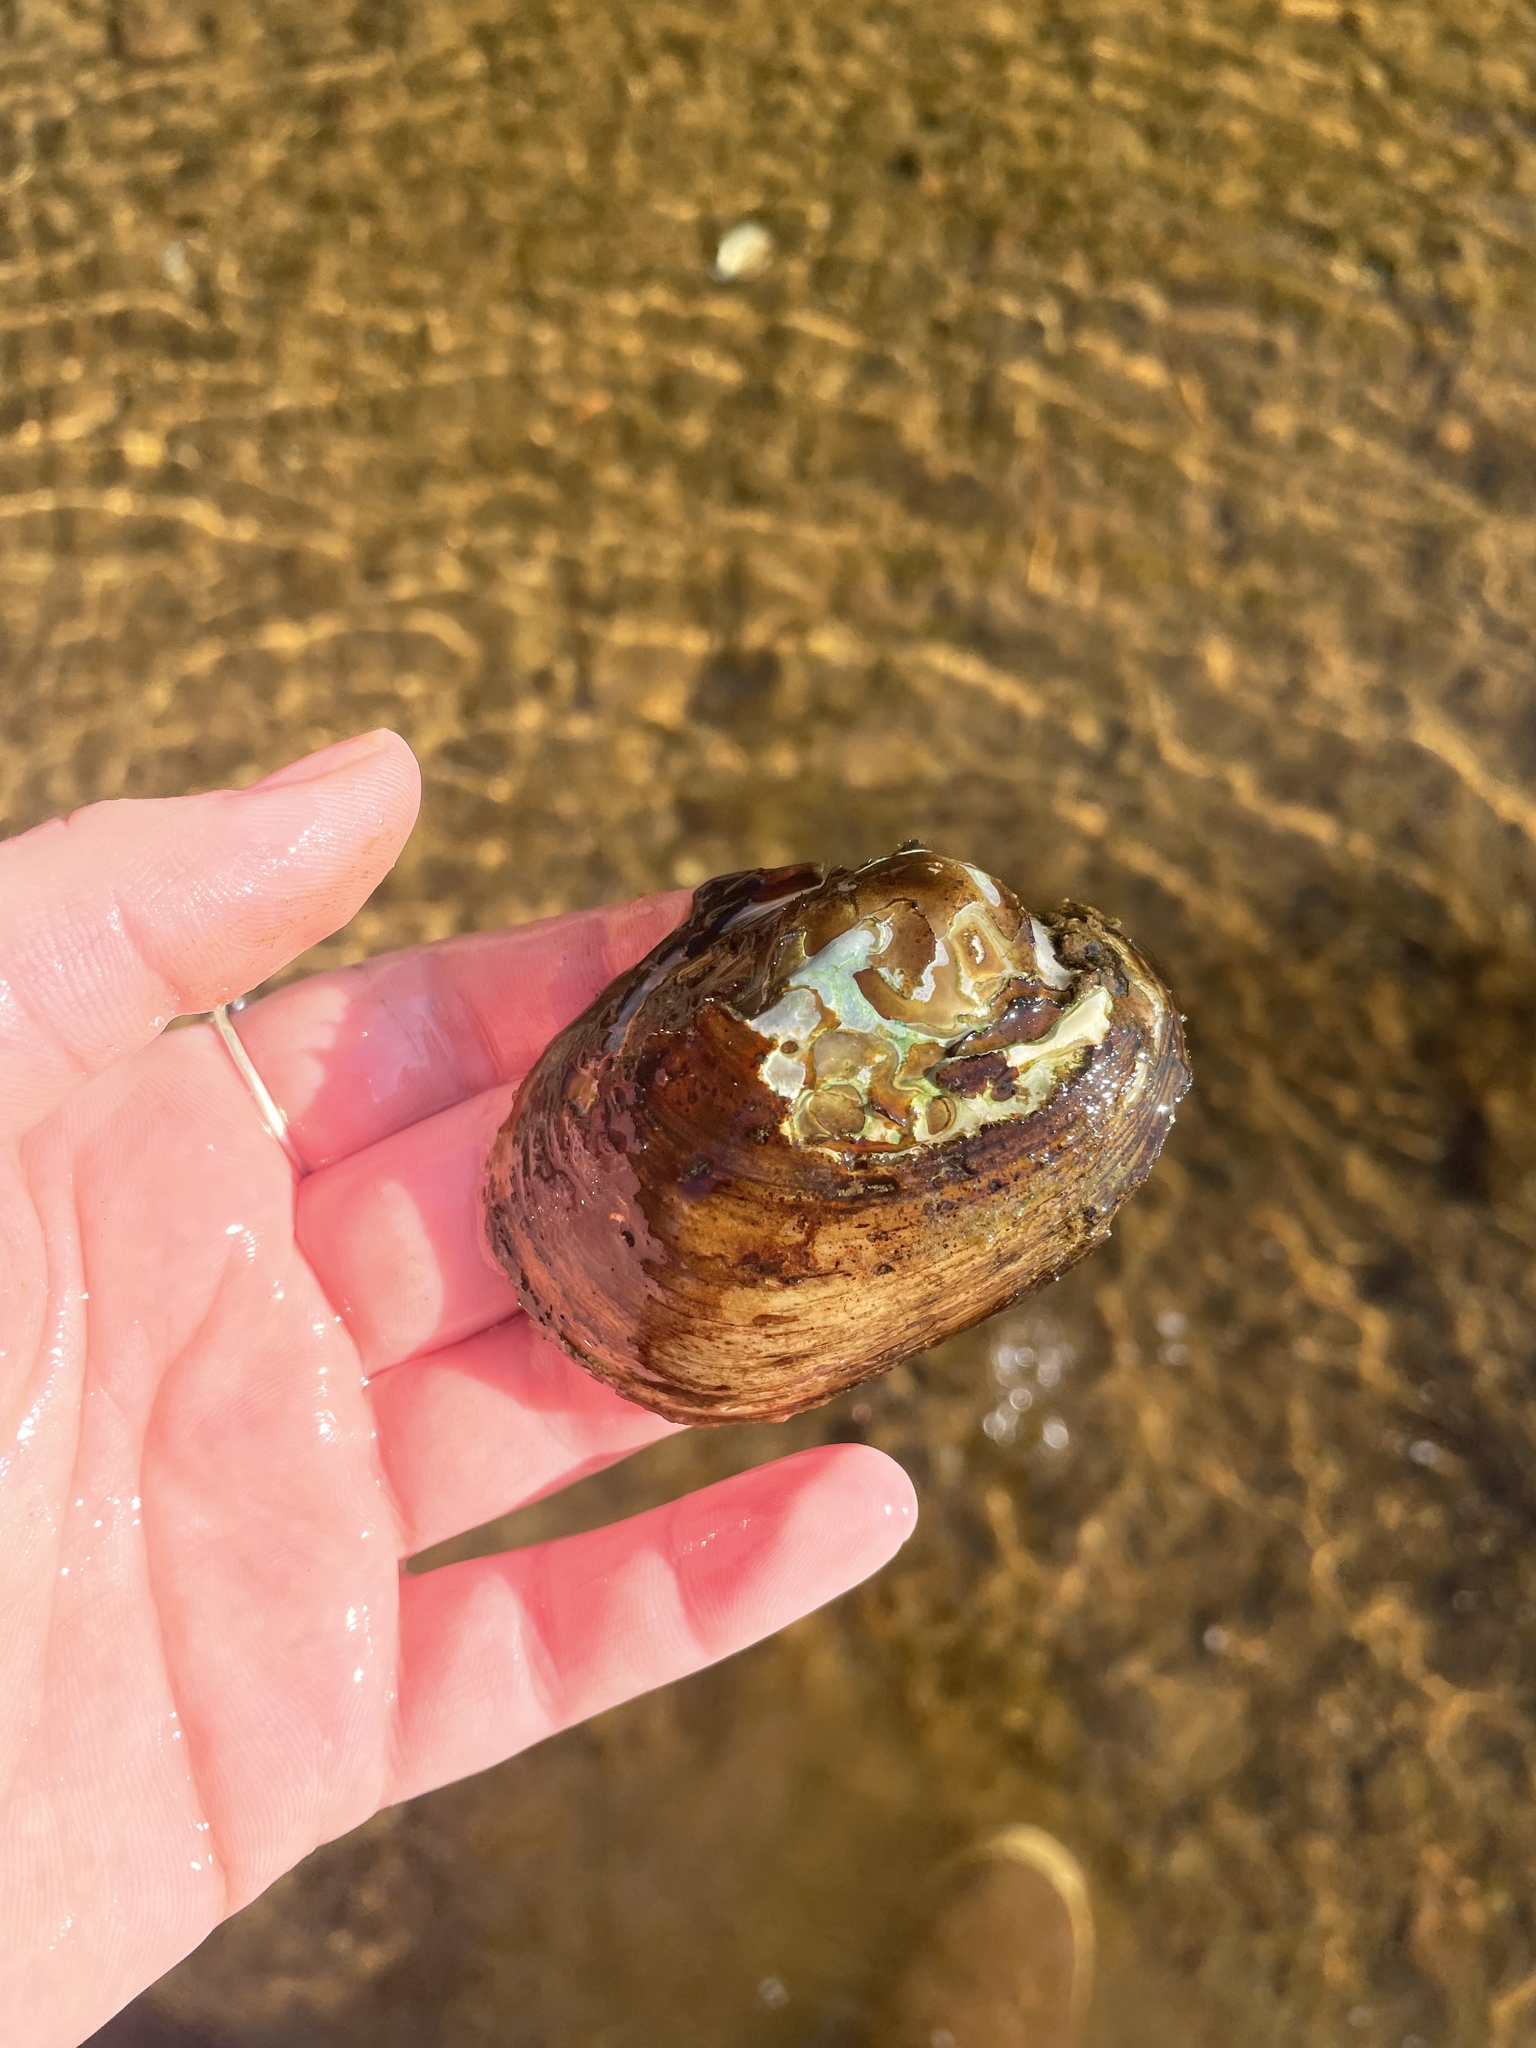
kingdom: Animalia
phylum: Mollusca
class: Bivalvia
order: Unionida
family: Unionidae
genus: Lampsilis
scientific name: Lampsilis cariosa
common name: Yellow lampmussel
